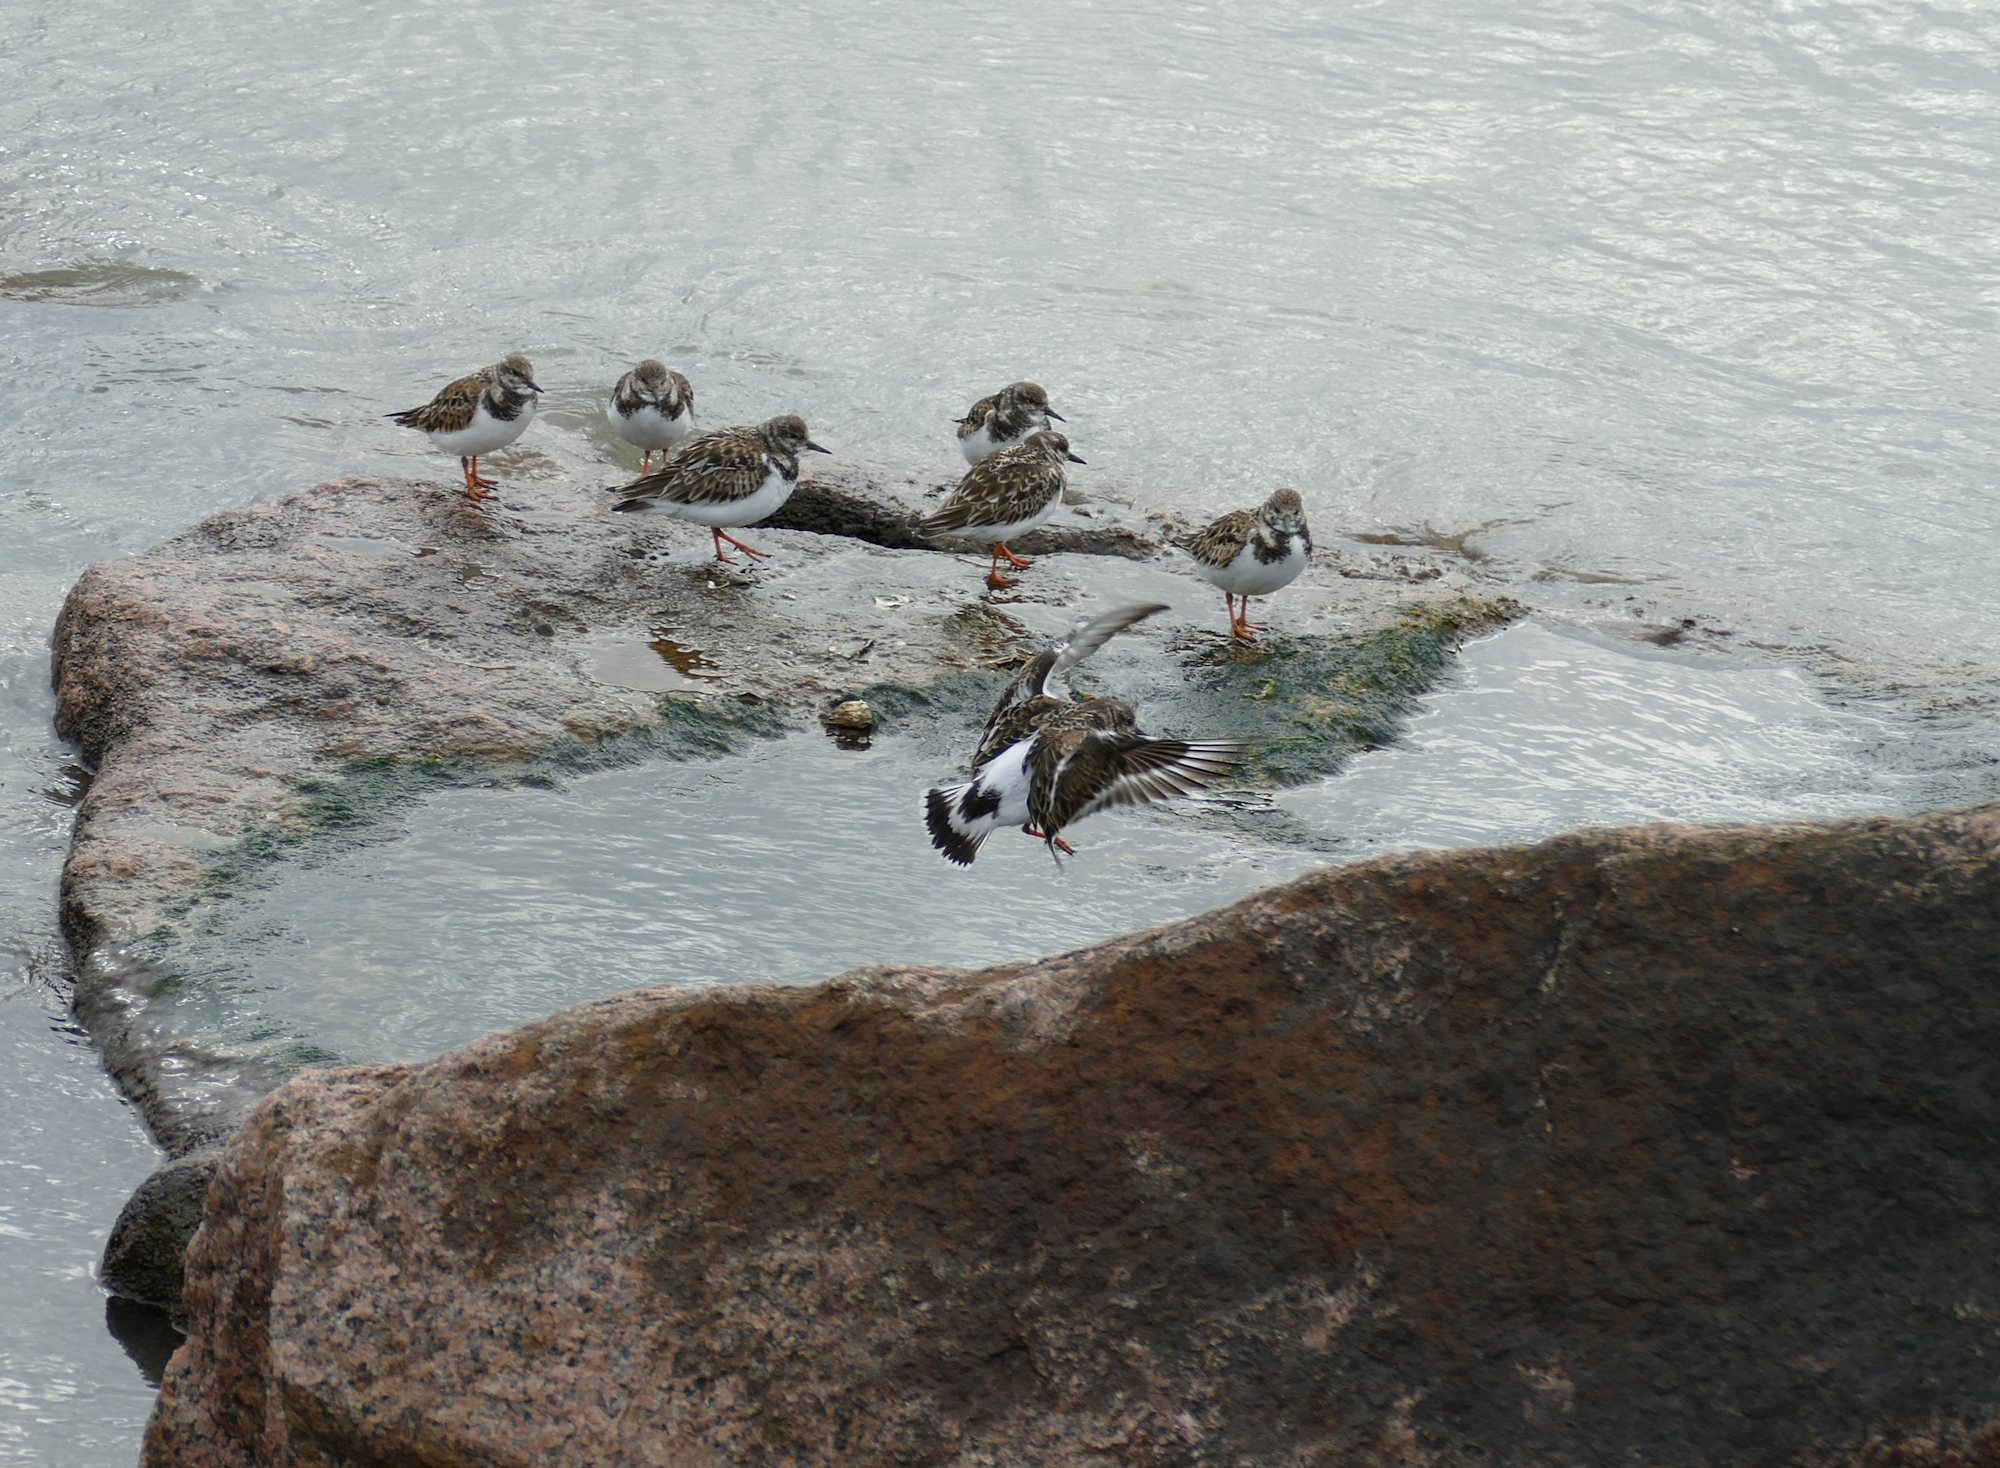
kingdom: Animalia
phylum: Chordata
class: Aves
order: Charadriiformes
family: Scolopacidae
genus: Arenaria
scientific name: Arenaria interpres
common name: Ruddy turnstone
